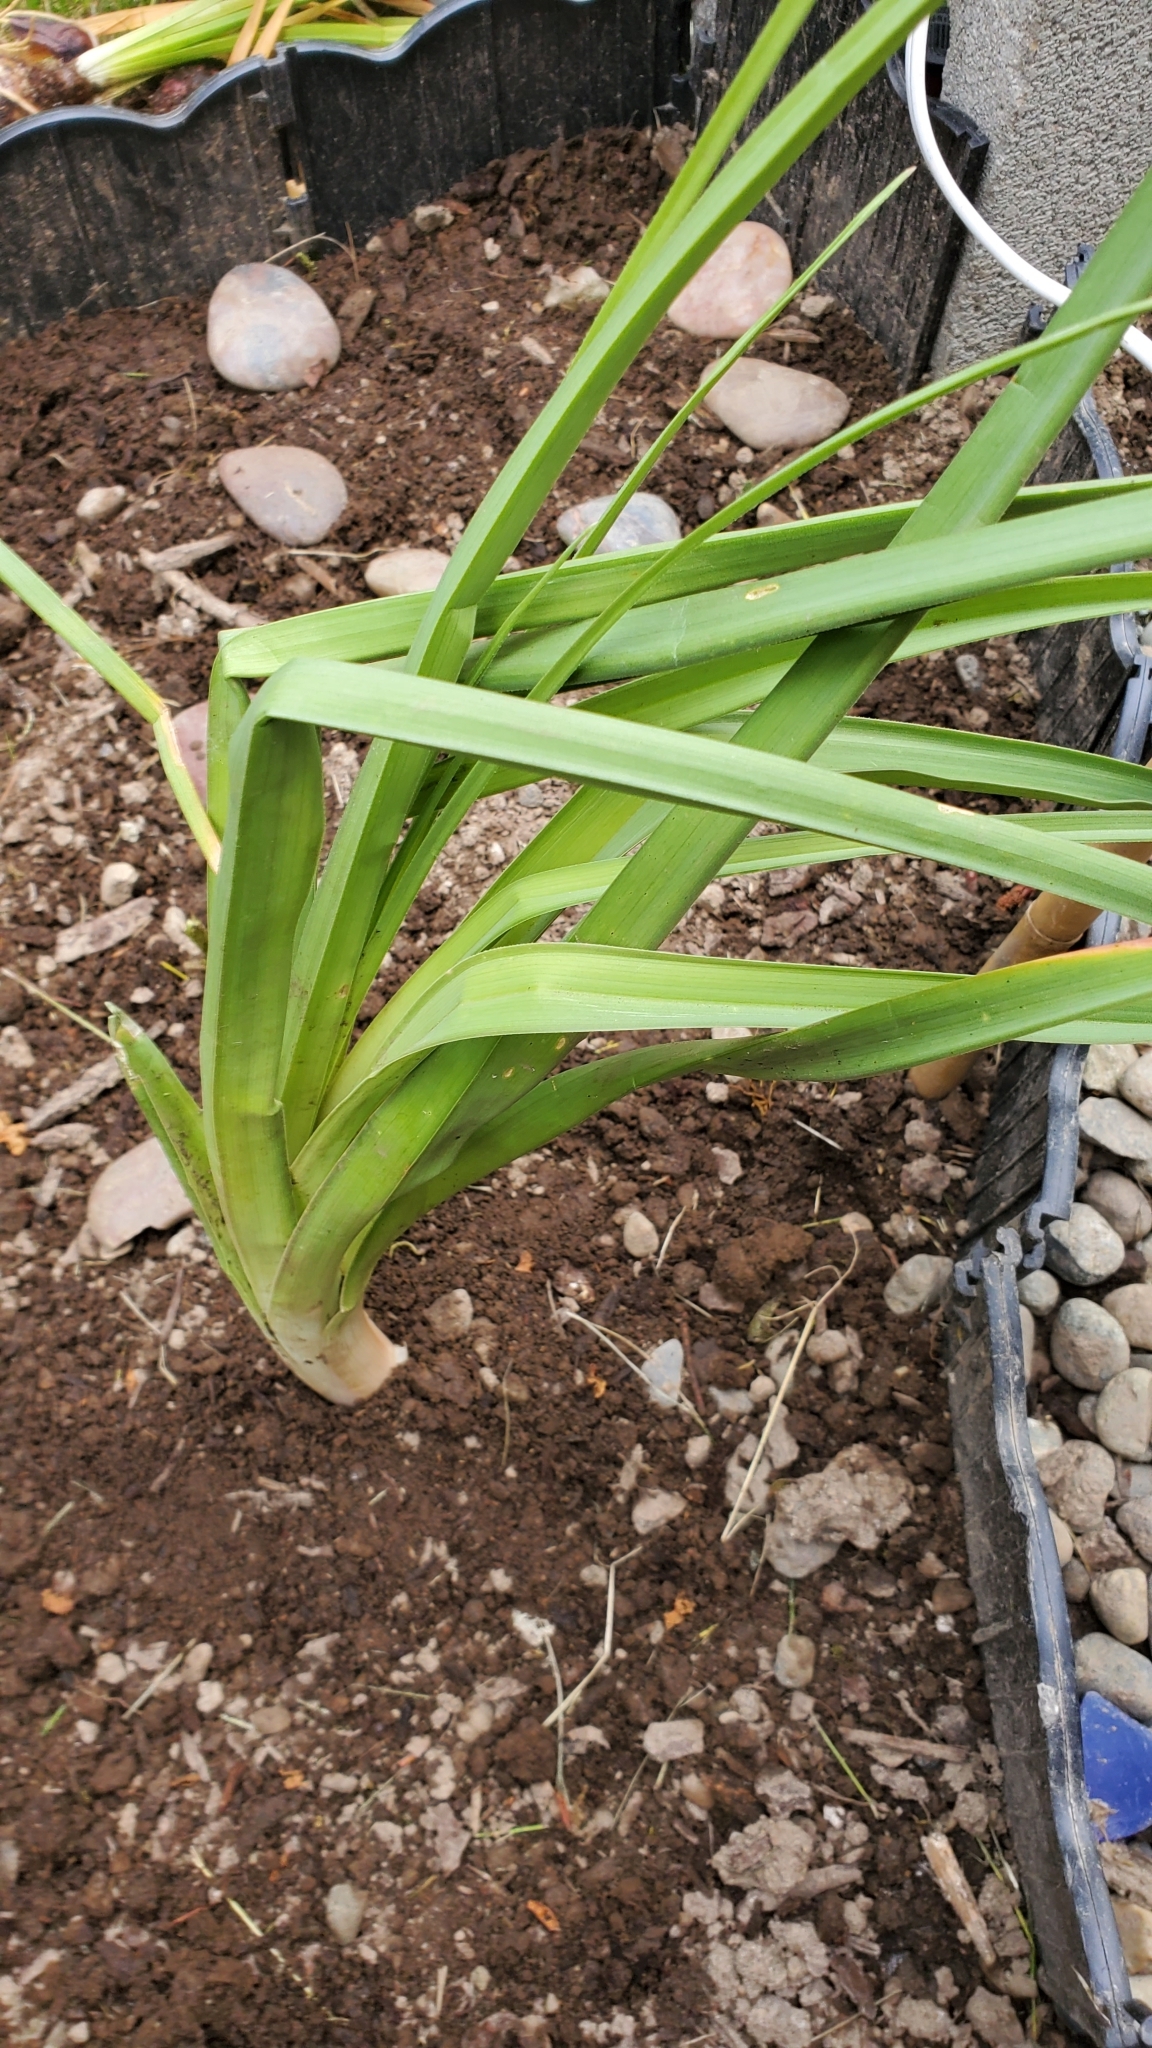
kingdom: Plantae
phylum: Tracheophyta
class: Liliopsida
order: Asparagales
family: Asphodelaceae
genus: Kniphofia
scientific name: Kniphofia uvaria
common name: Red-hot-poker
